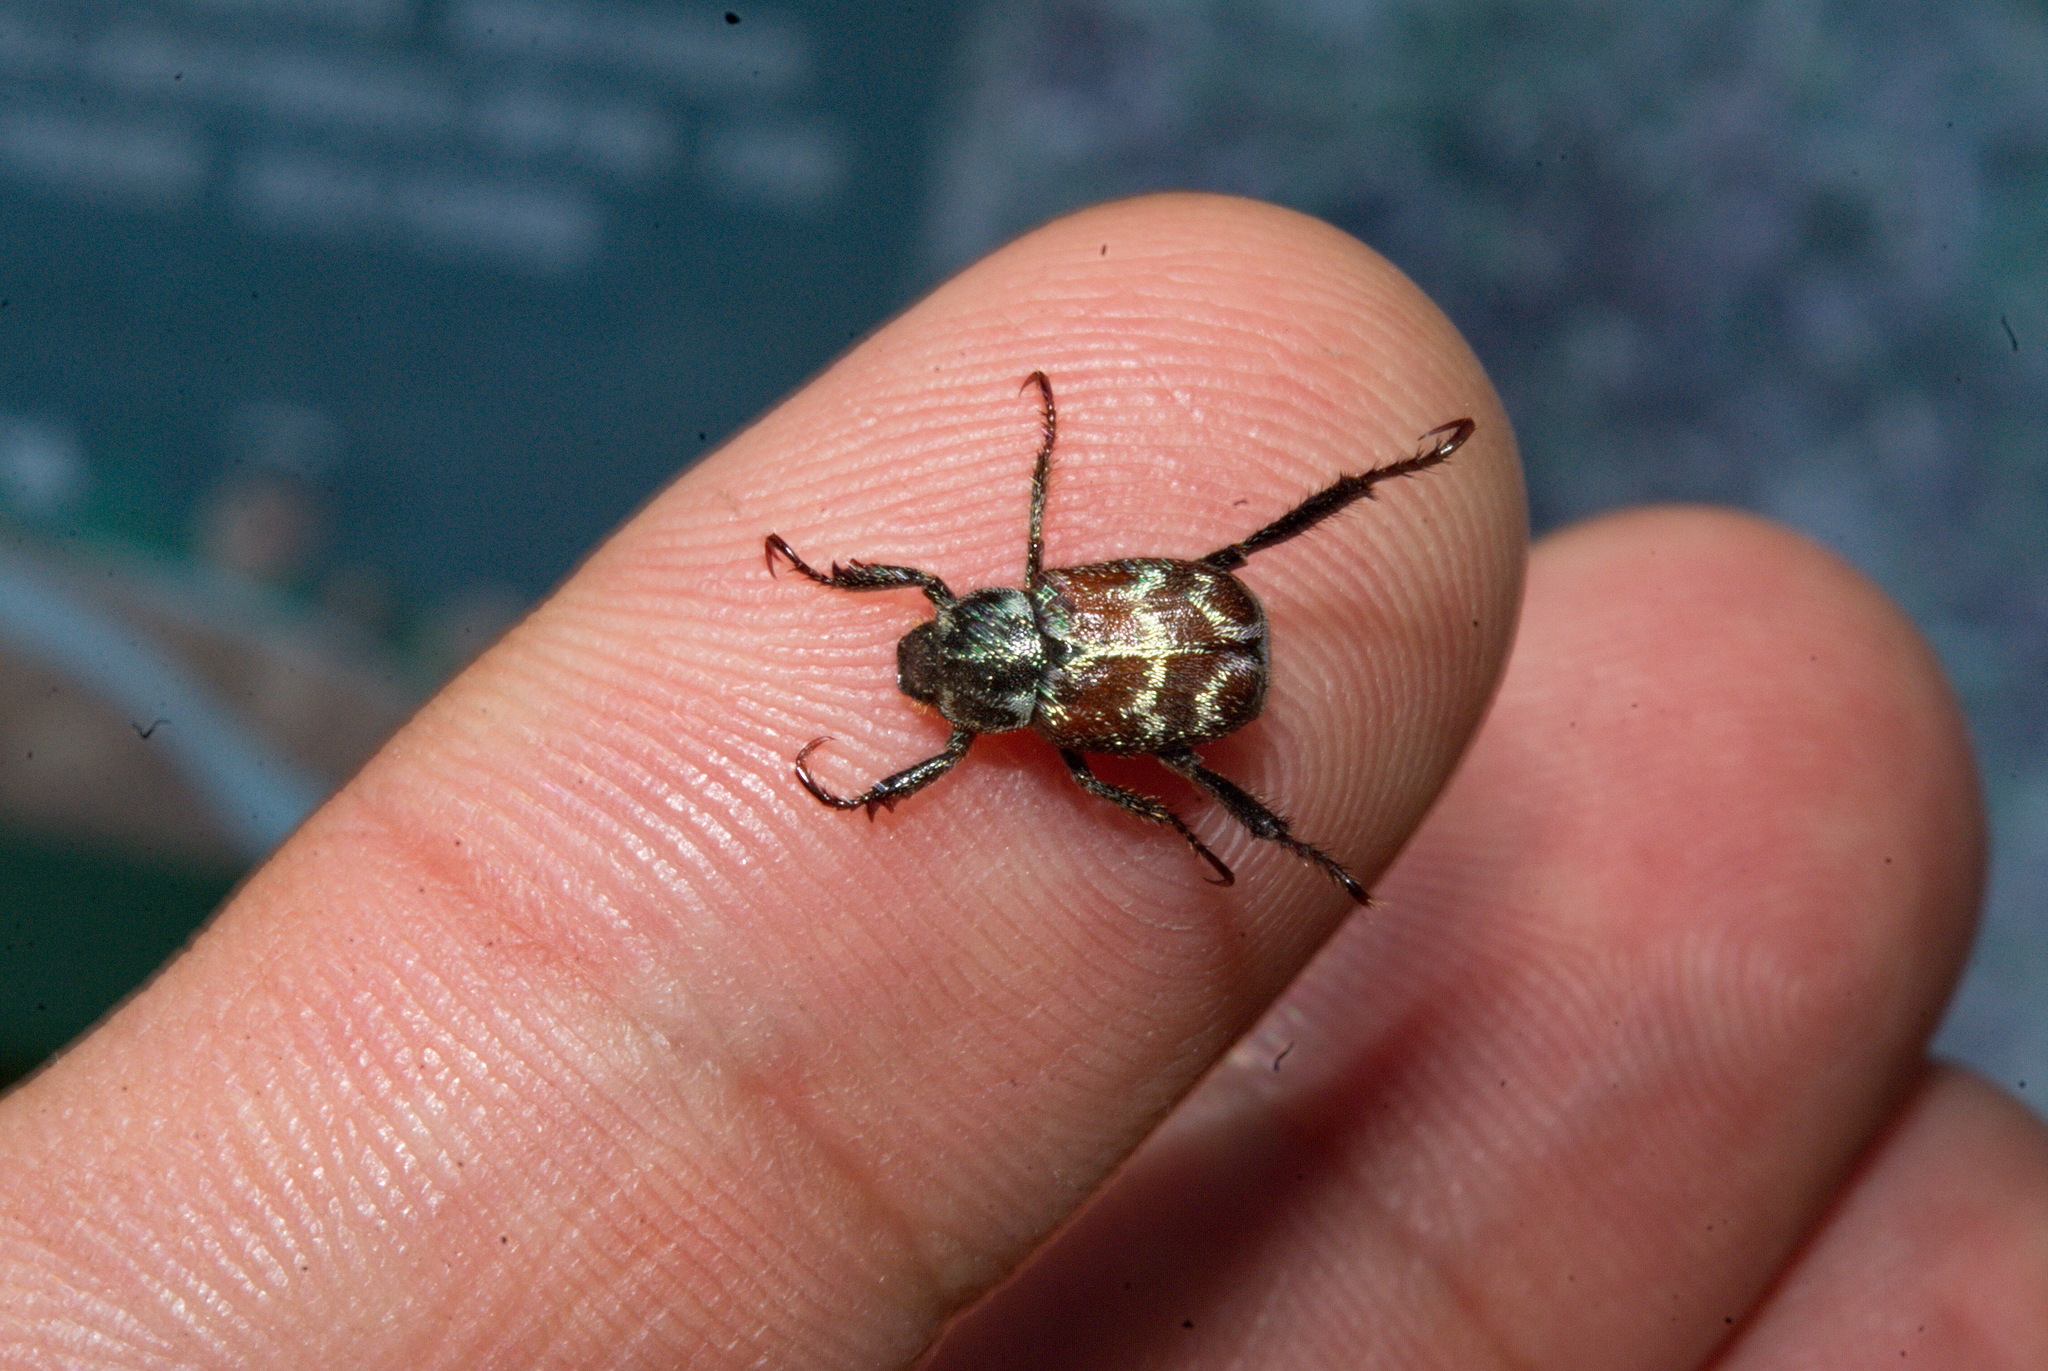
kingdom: Animalia
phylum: Arthropoda
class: Insecta
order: Coleoptera
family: Scarabaeidae
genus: Hoplia
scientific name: Hoplia shirozui
